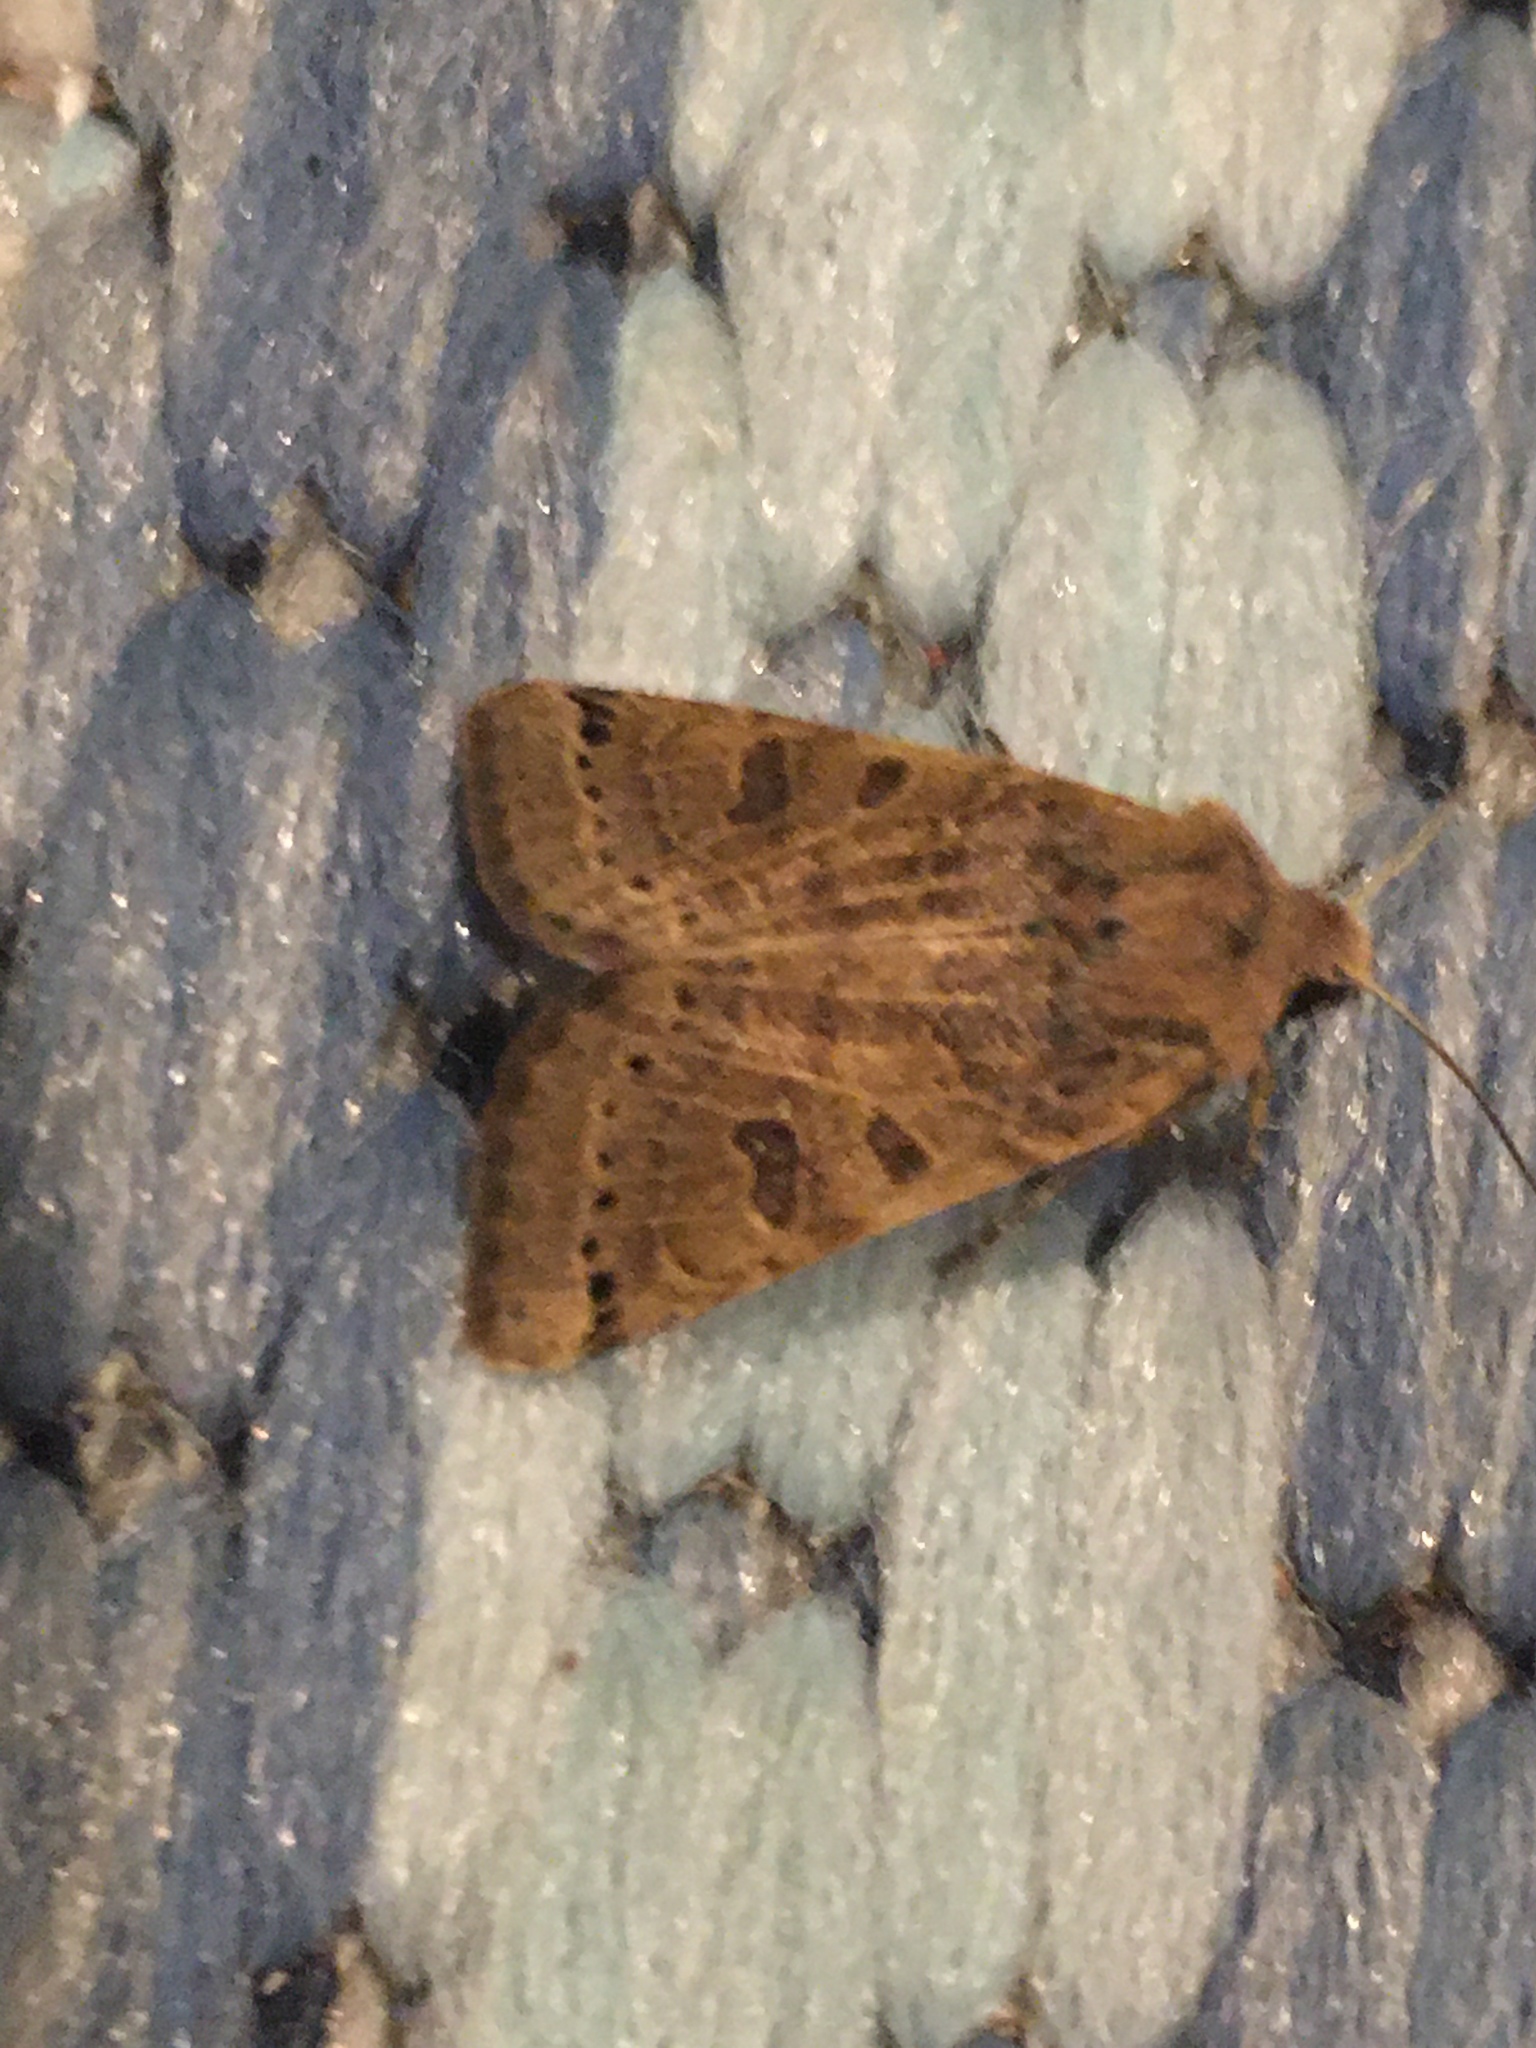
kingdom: Animalia
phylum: Arthropoda
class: Insecta
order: Lepidoptera
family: Noctuidae
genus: Agrochola
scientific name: Agrochola lunosa
